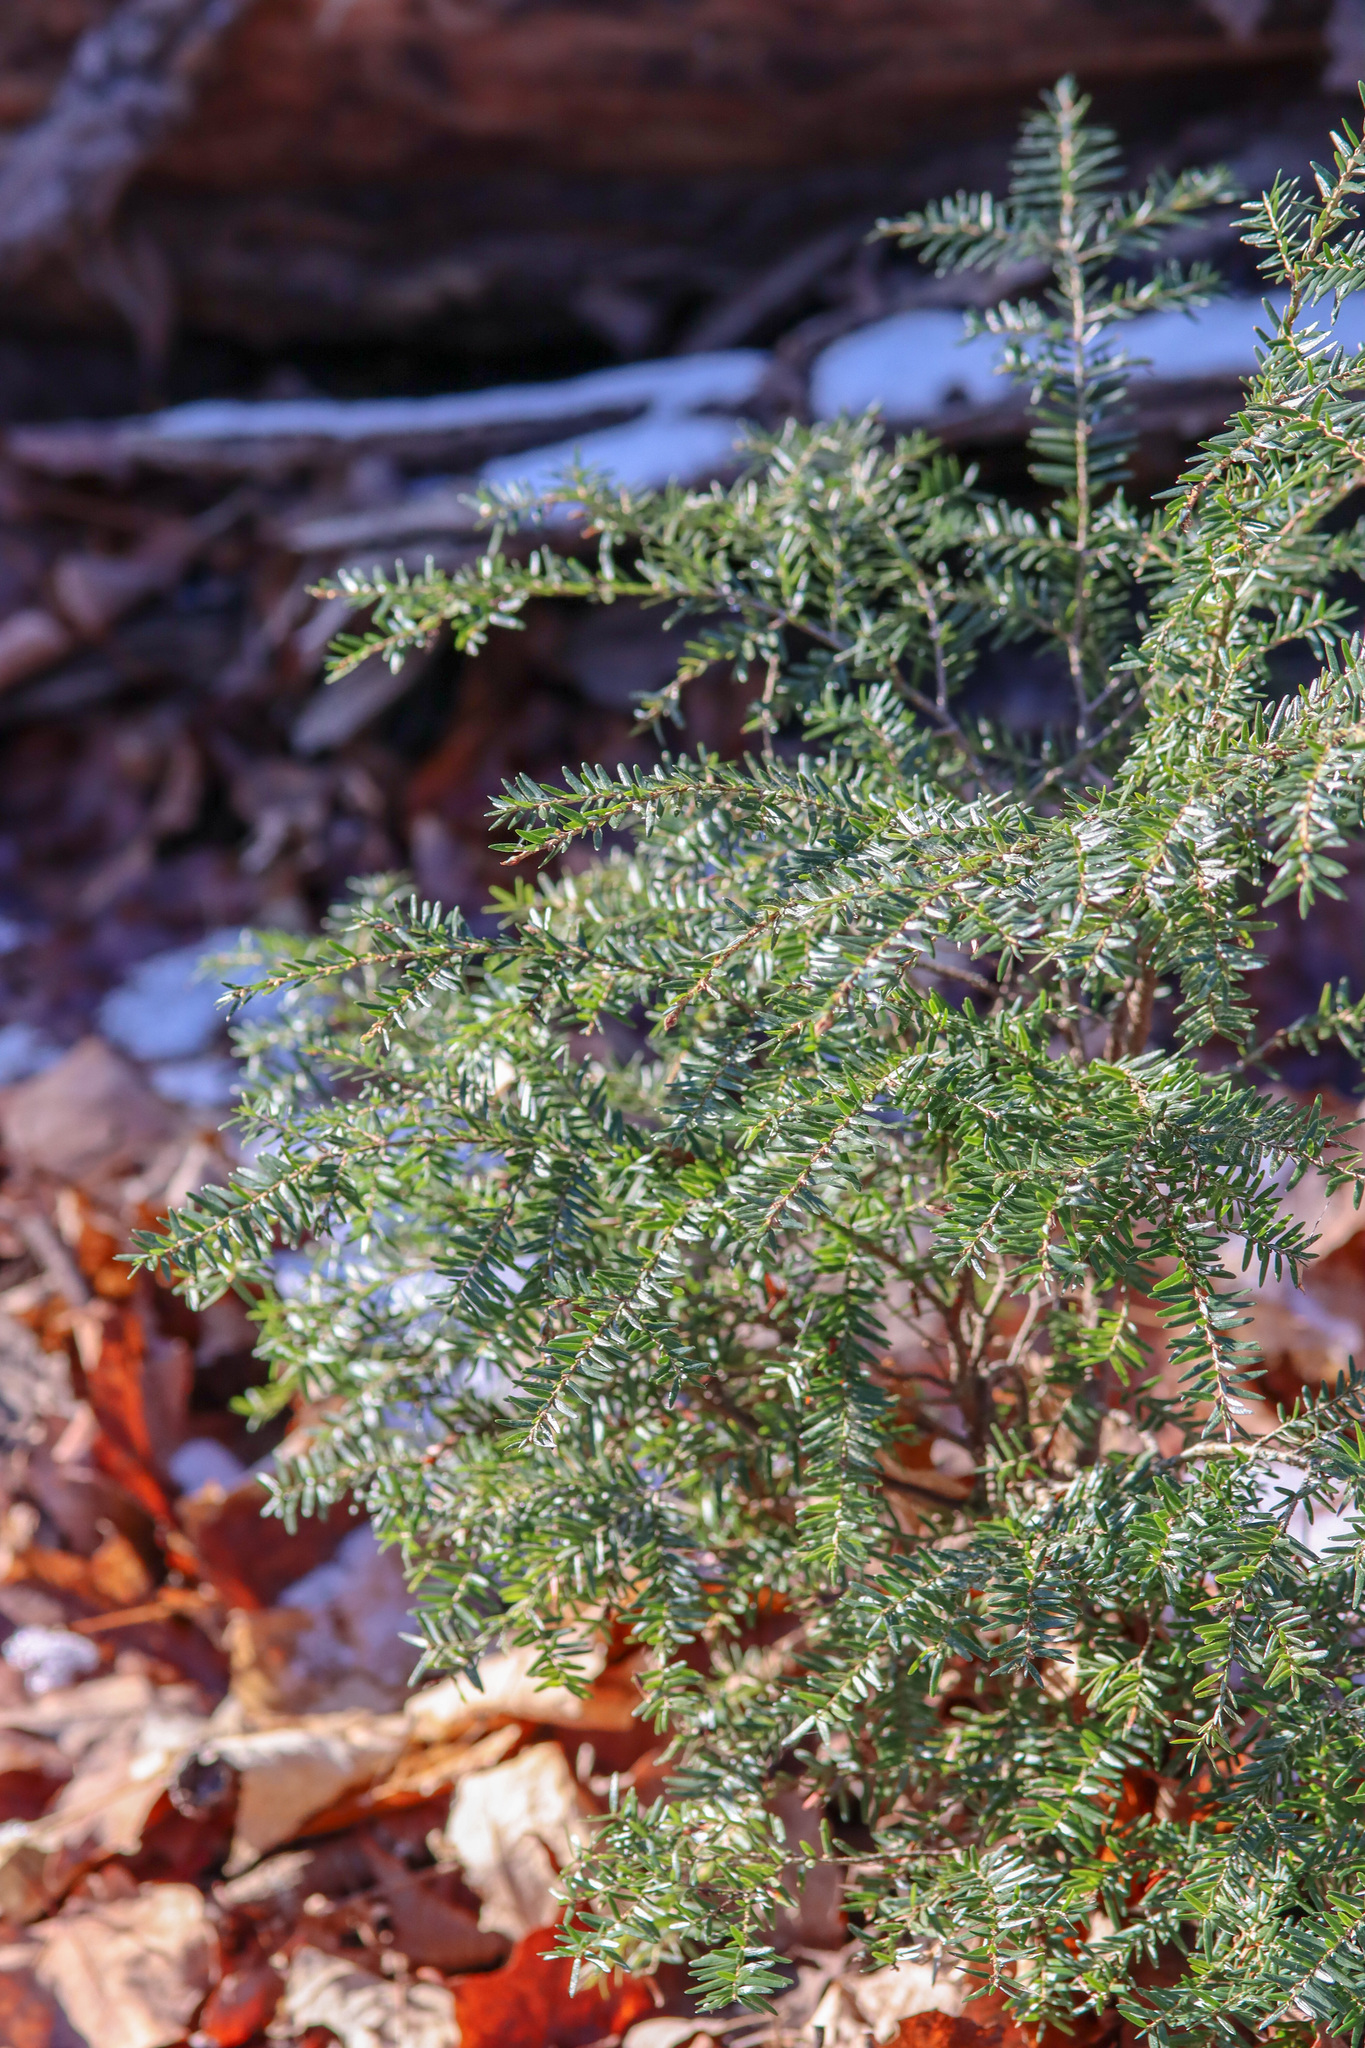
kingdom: Plantae
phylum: Tracheophyta
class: Pinopsida
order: Pinales
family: Pinaceae
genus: Tsuga
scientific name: Tsuga canadensis
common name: Eastern hemlock
